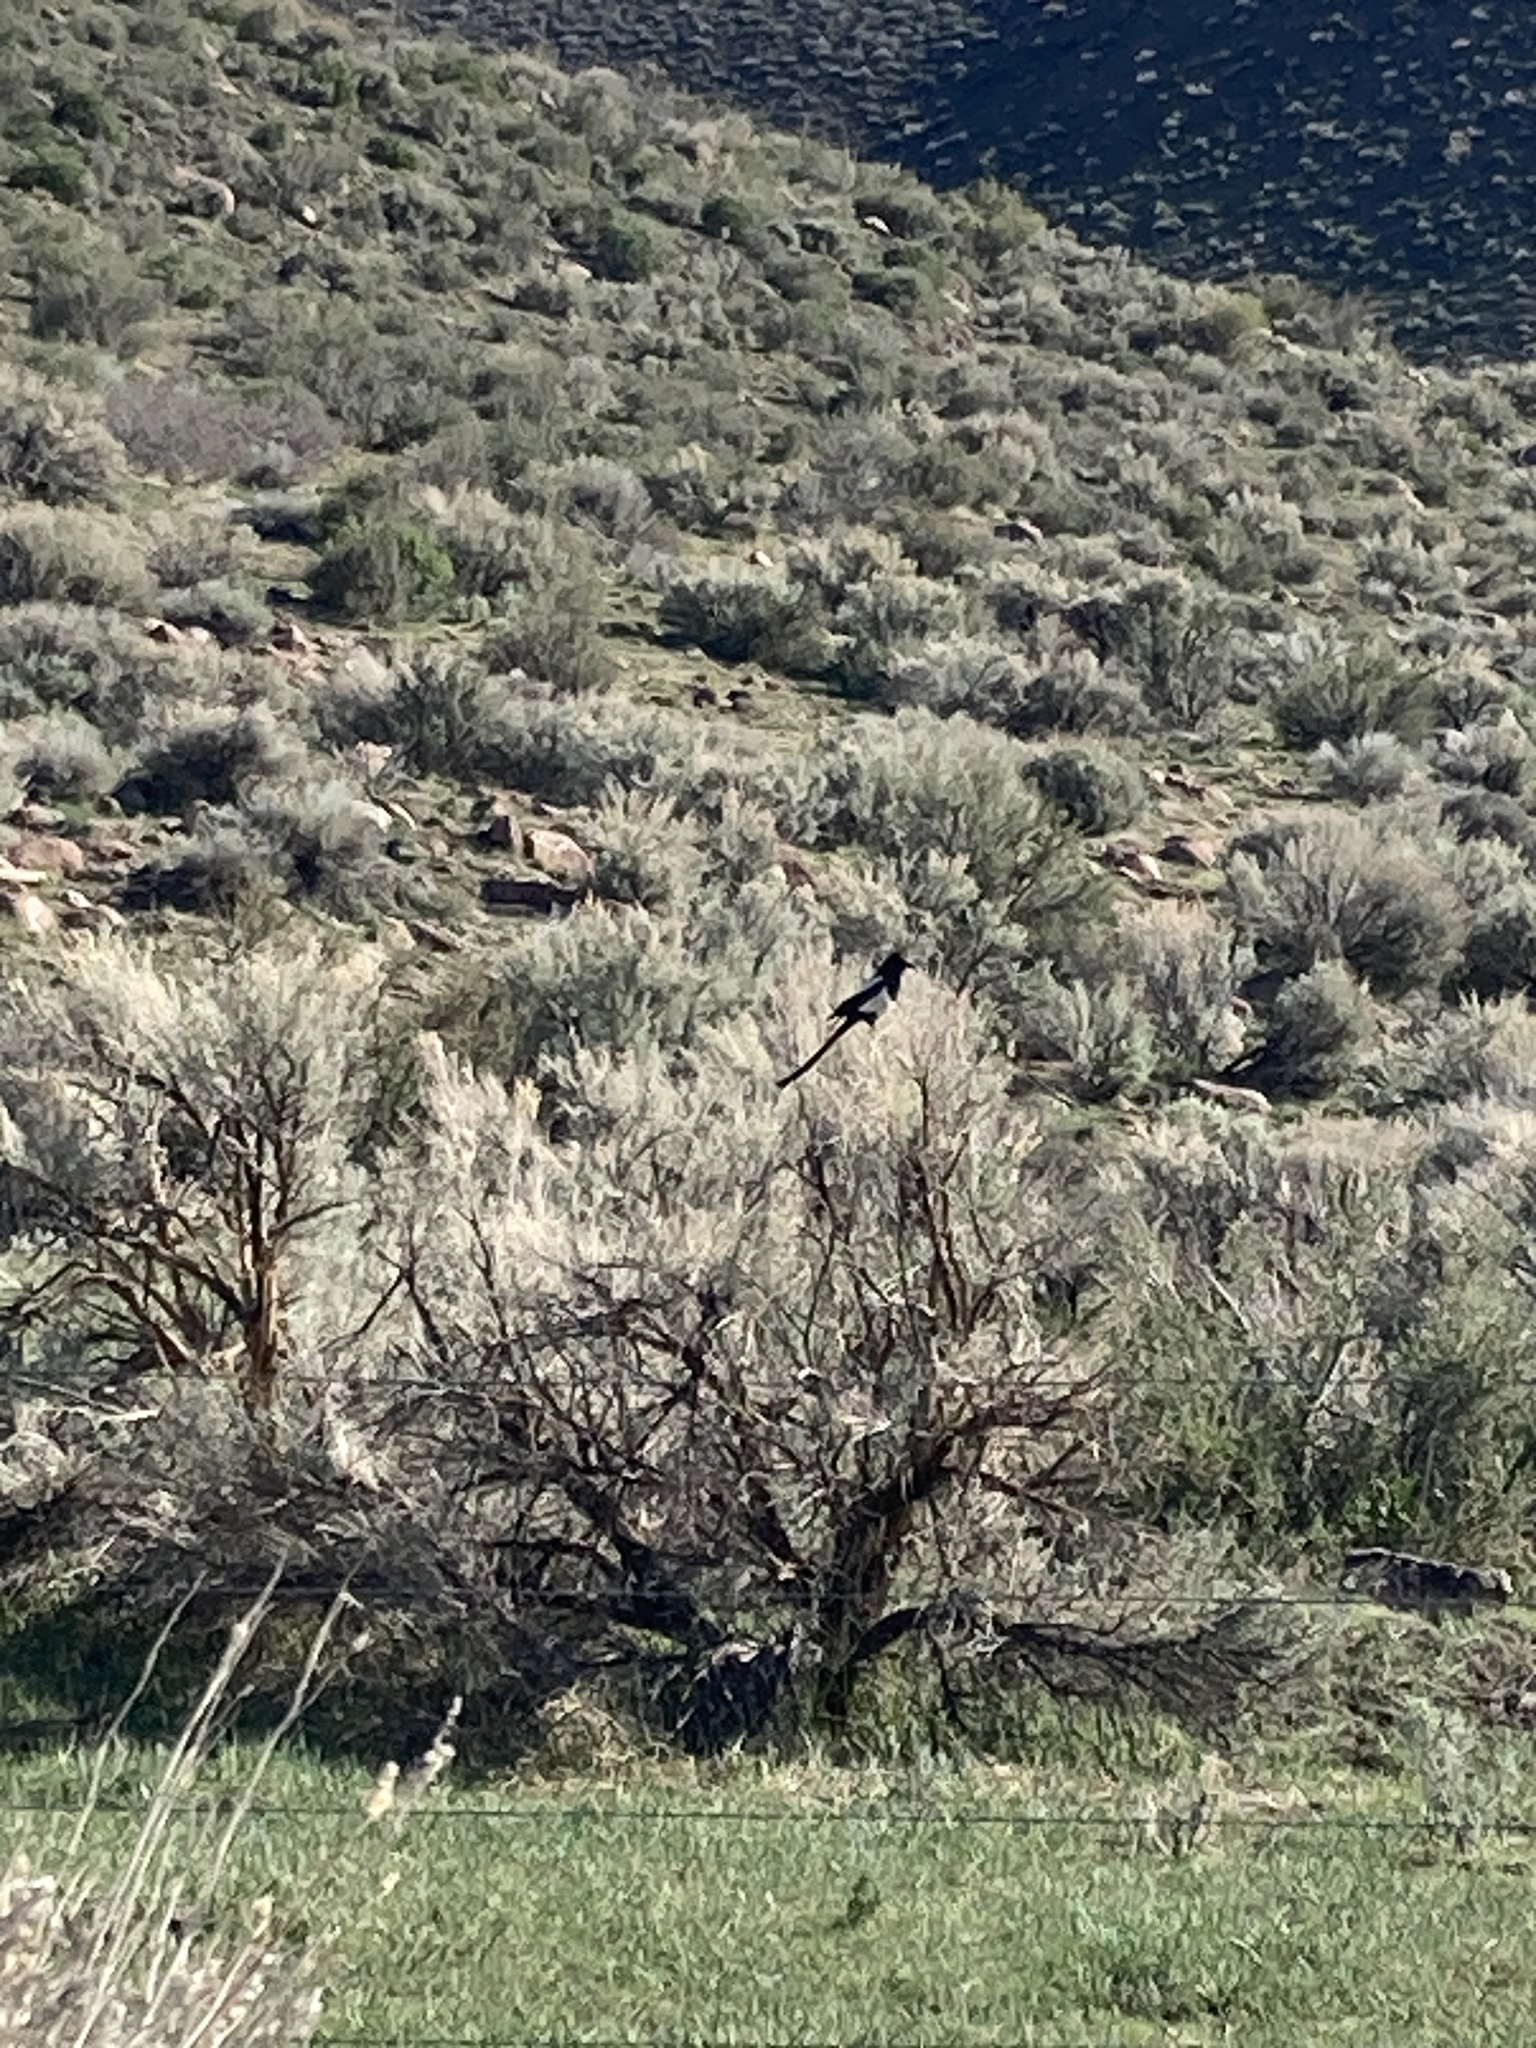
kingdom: Animalia
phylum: Chordata
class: Aves
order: Passeriformes
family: Corvidae
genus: Pica
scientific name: Pica hudsonia
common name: Black-billed magpie
